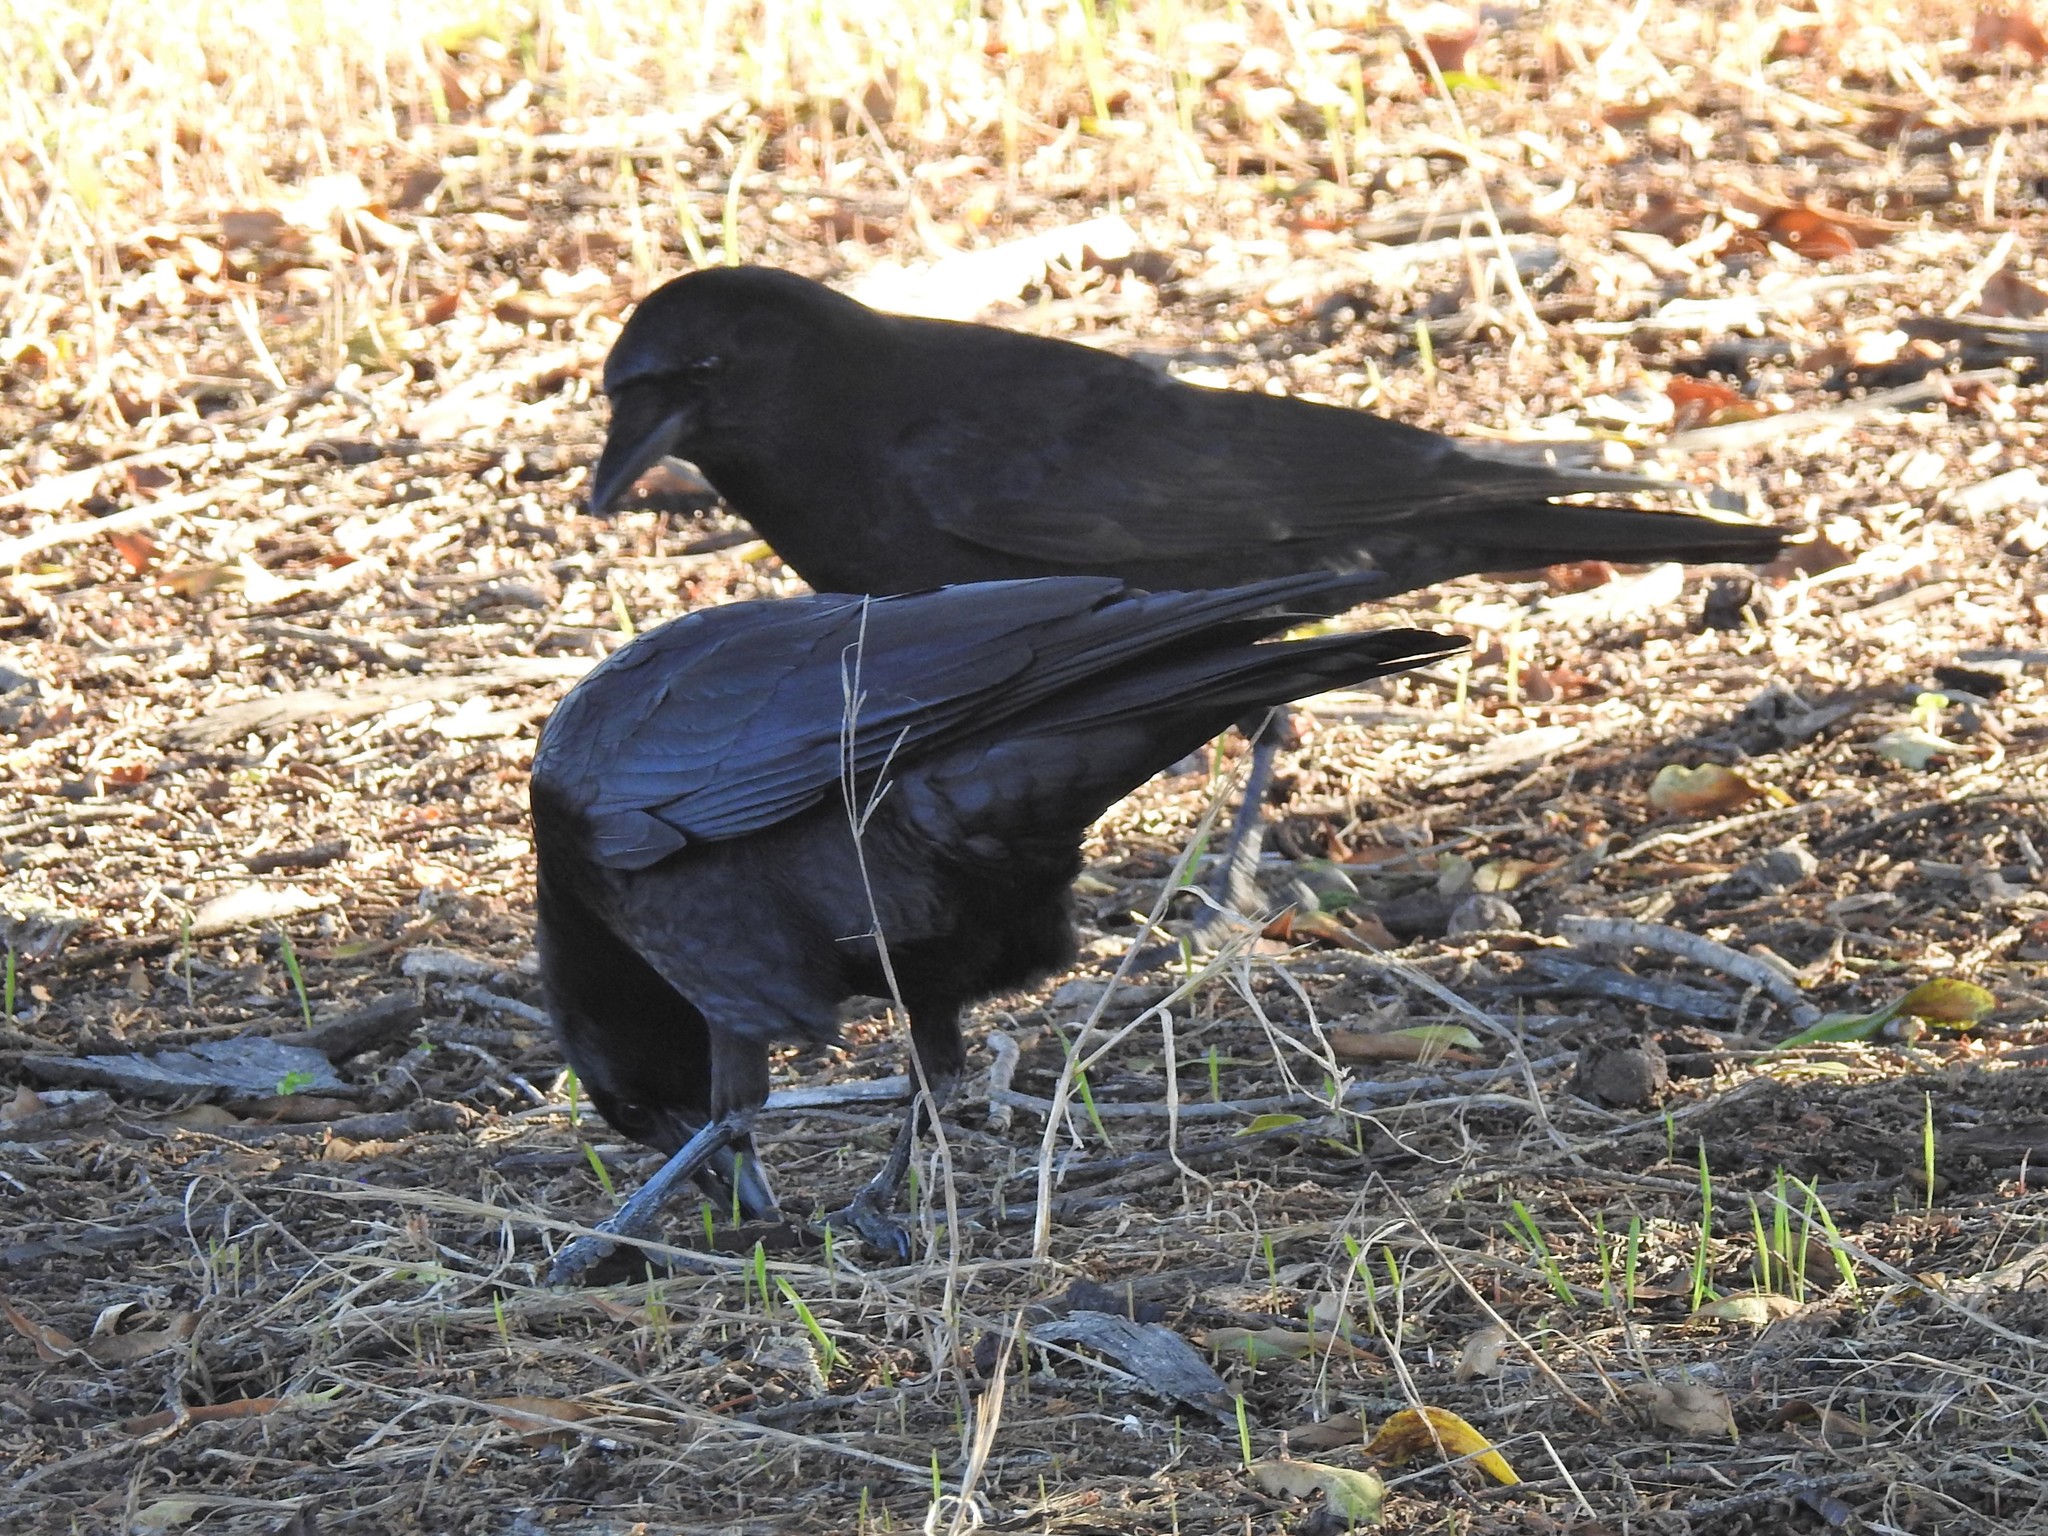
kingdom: Animalia
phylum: Chordata
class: Aves
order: Passeriformes
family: Corvidae
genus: Corvus
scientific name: Corvus brachyrhynchos
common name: American crow
